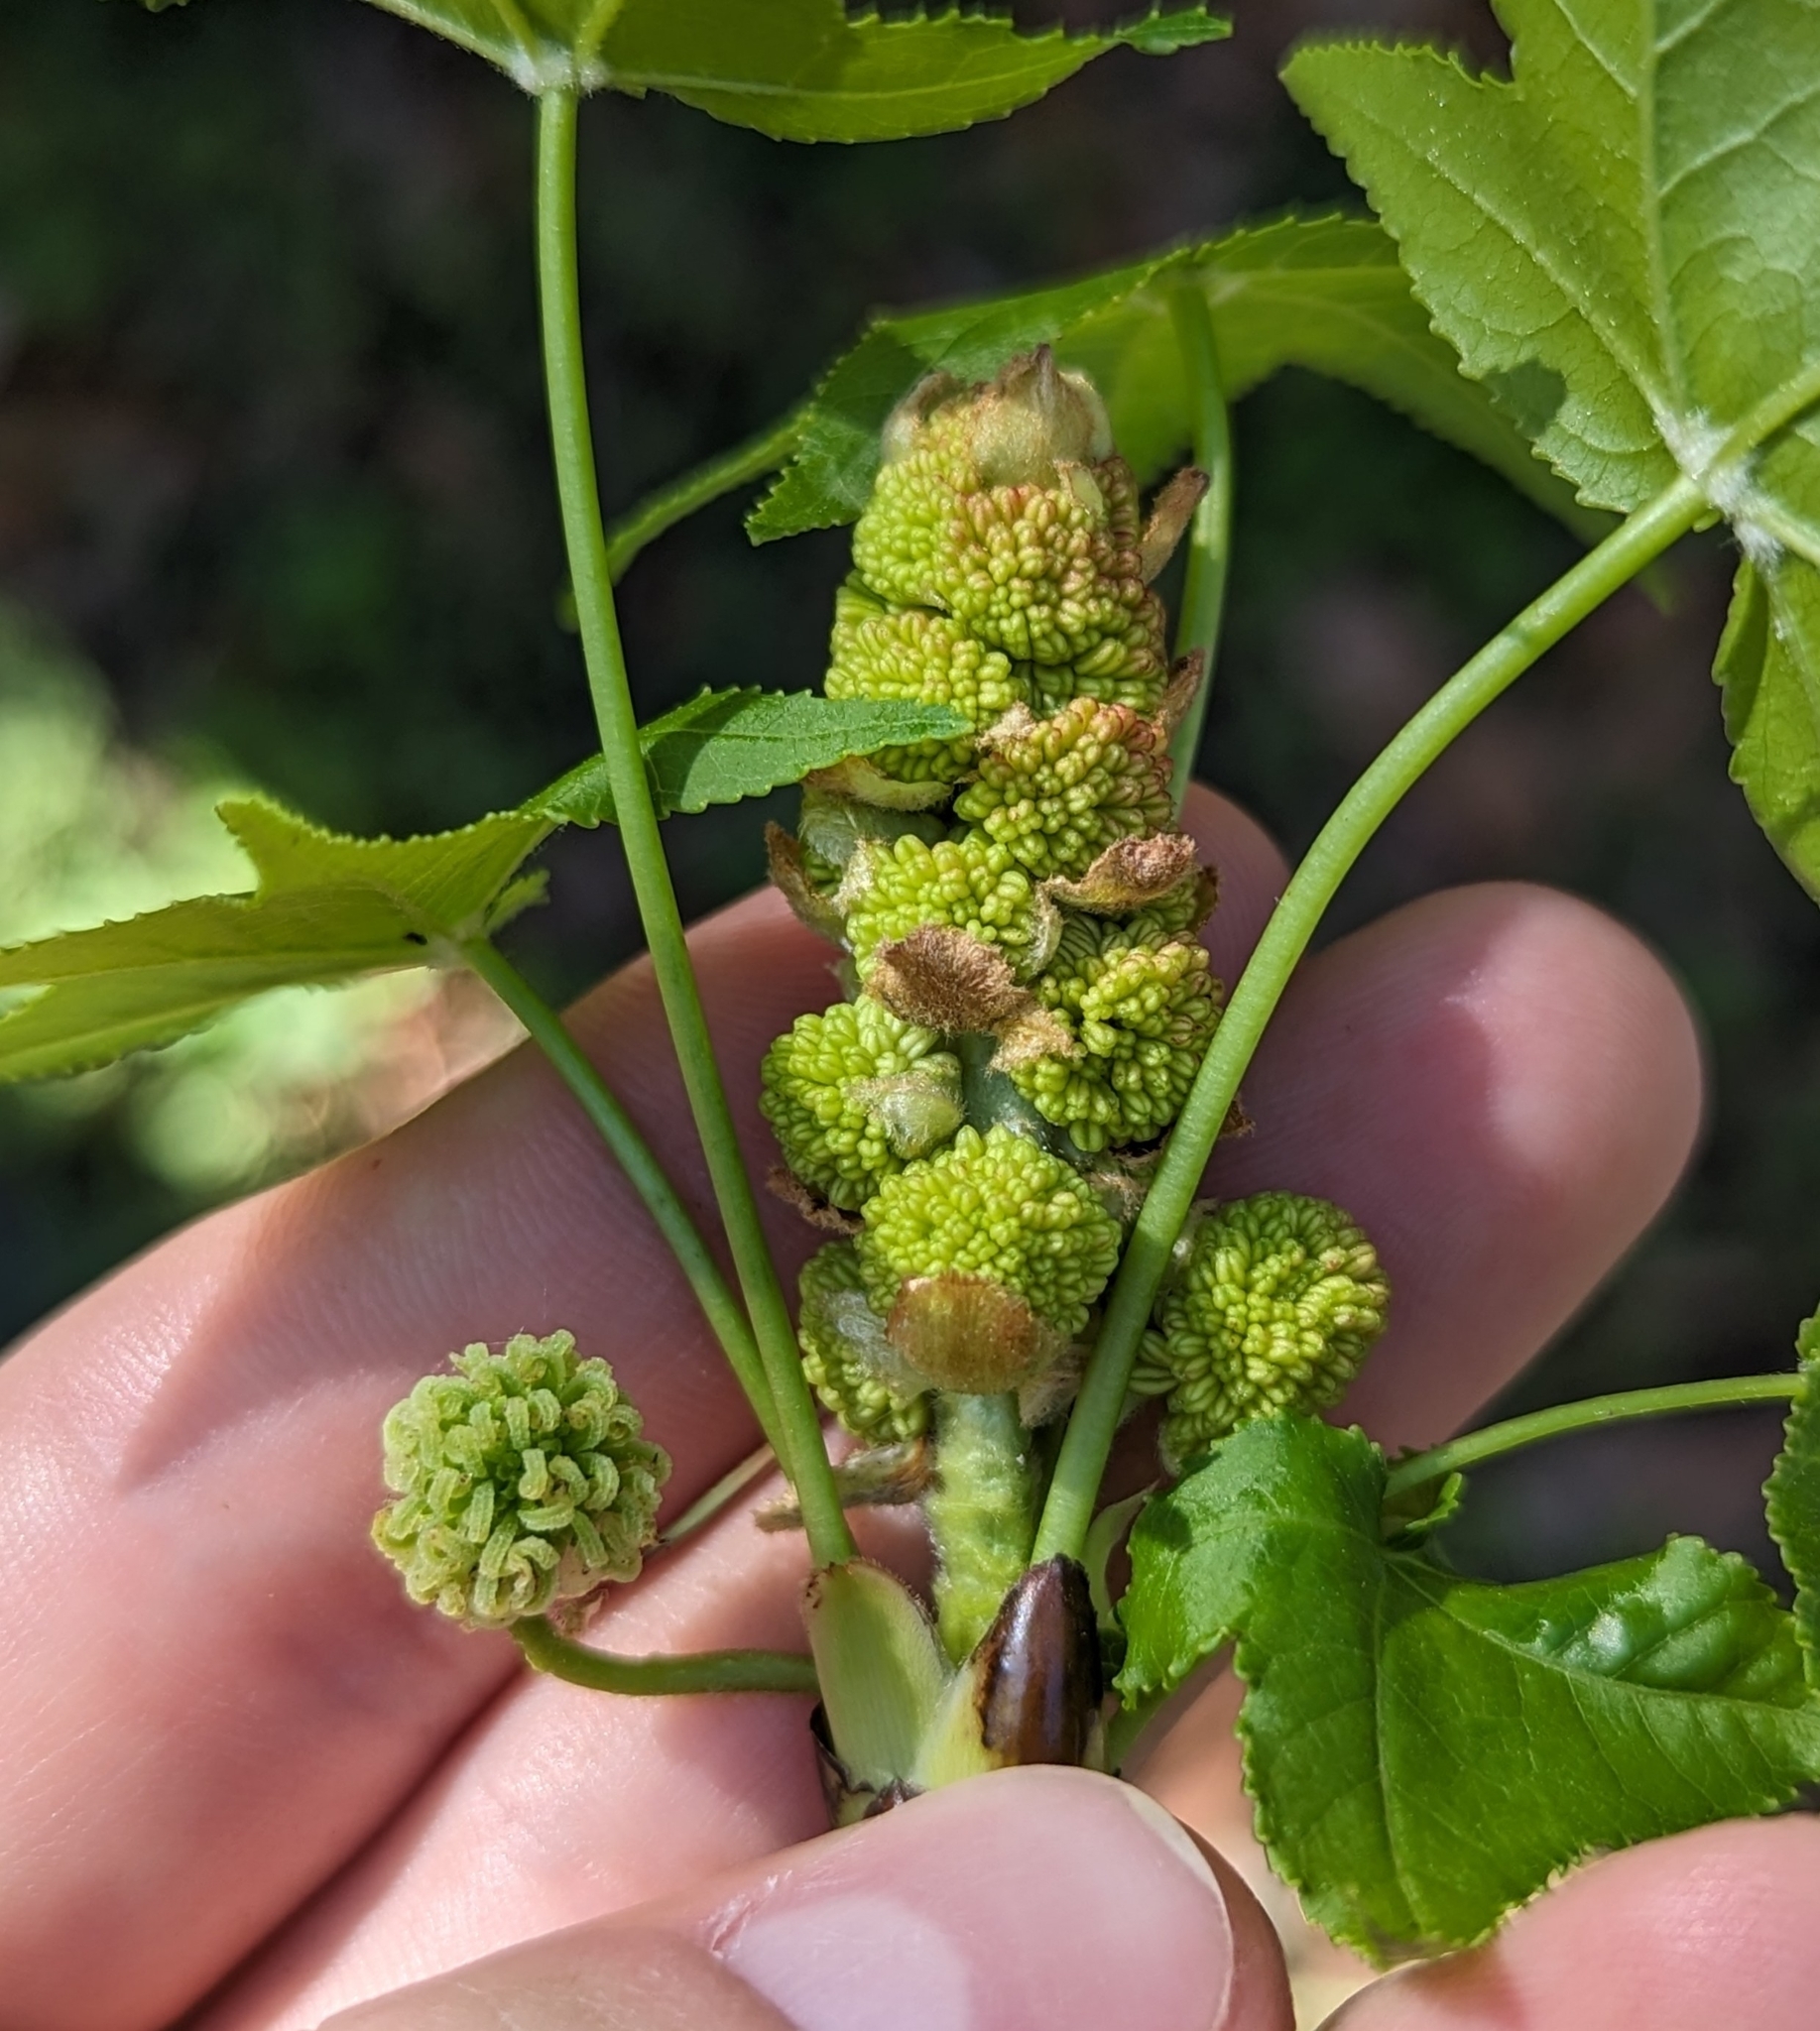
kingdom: Plantae
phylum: Tracheophyta
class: Magnoliopsida
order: Saxifragales
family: Altingiaceae
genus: Liquidambar
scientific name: Liquidambar styraciflua
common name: Sweet gum
